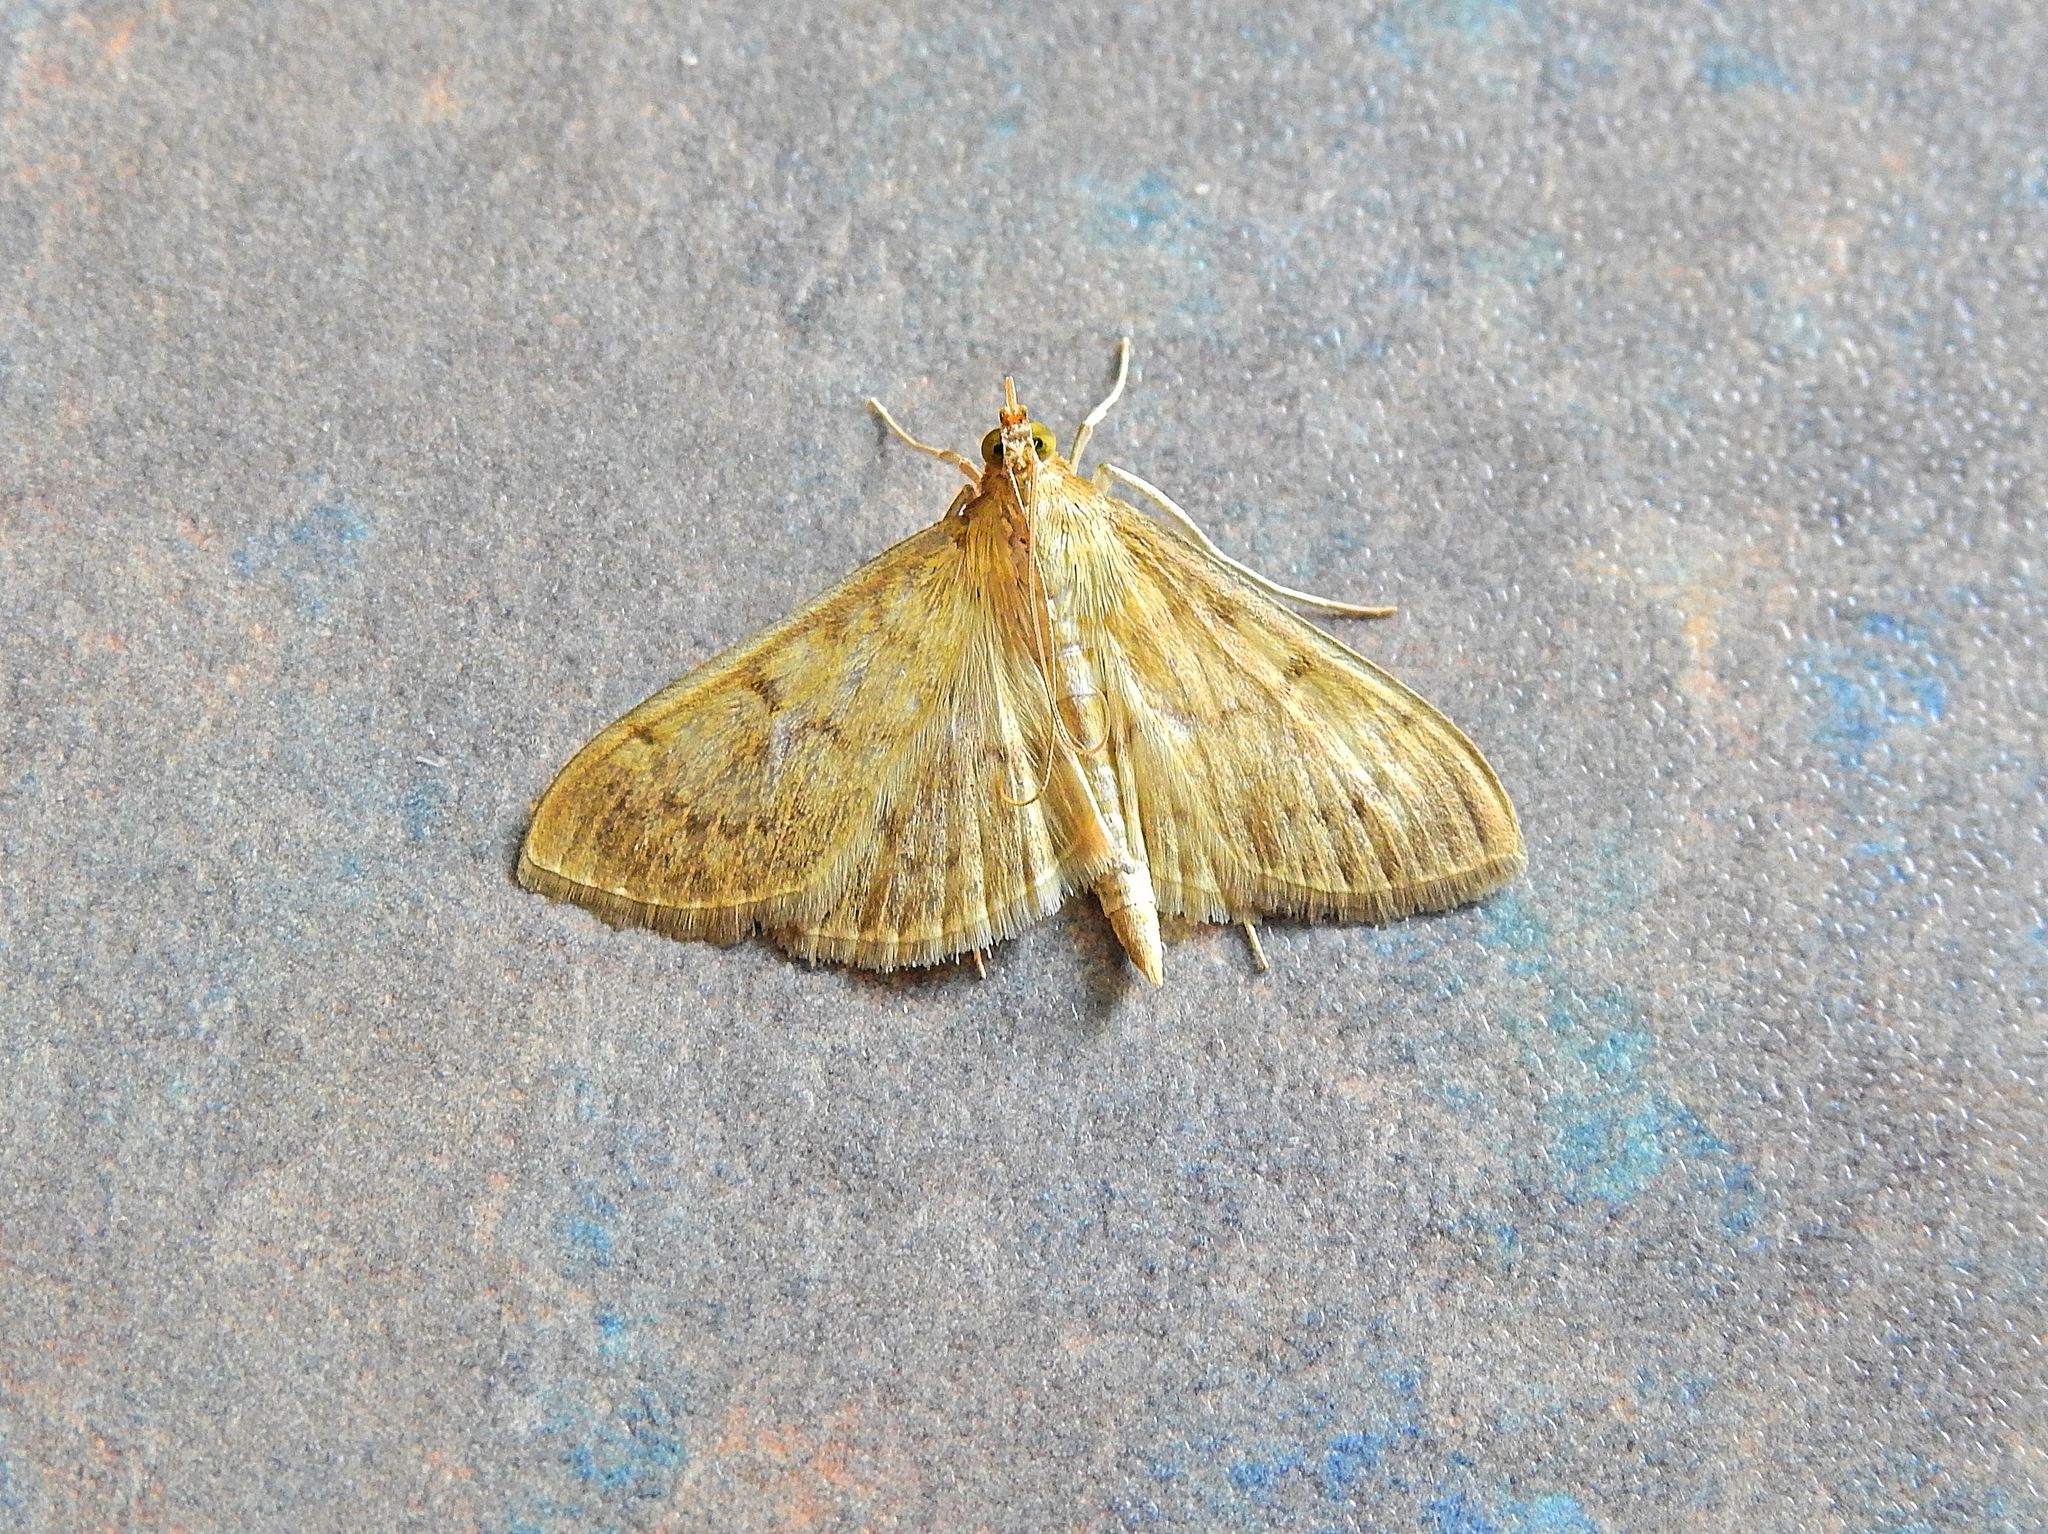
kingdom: Animalia
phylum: Arthropoda
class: Insecta
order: Lepidoptera
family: Crambidae
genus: Patania
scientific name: Patania ruralis
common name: Mother of pearl
